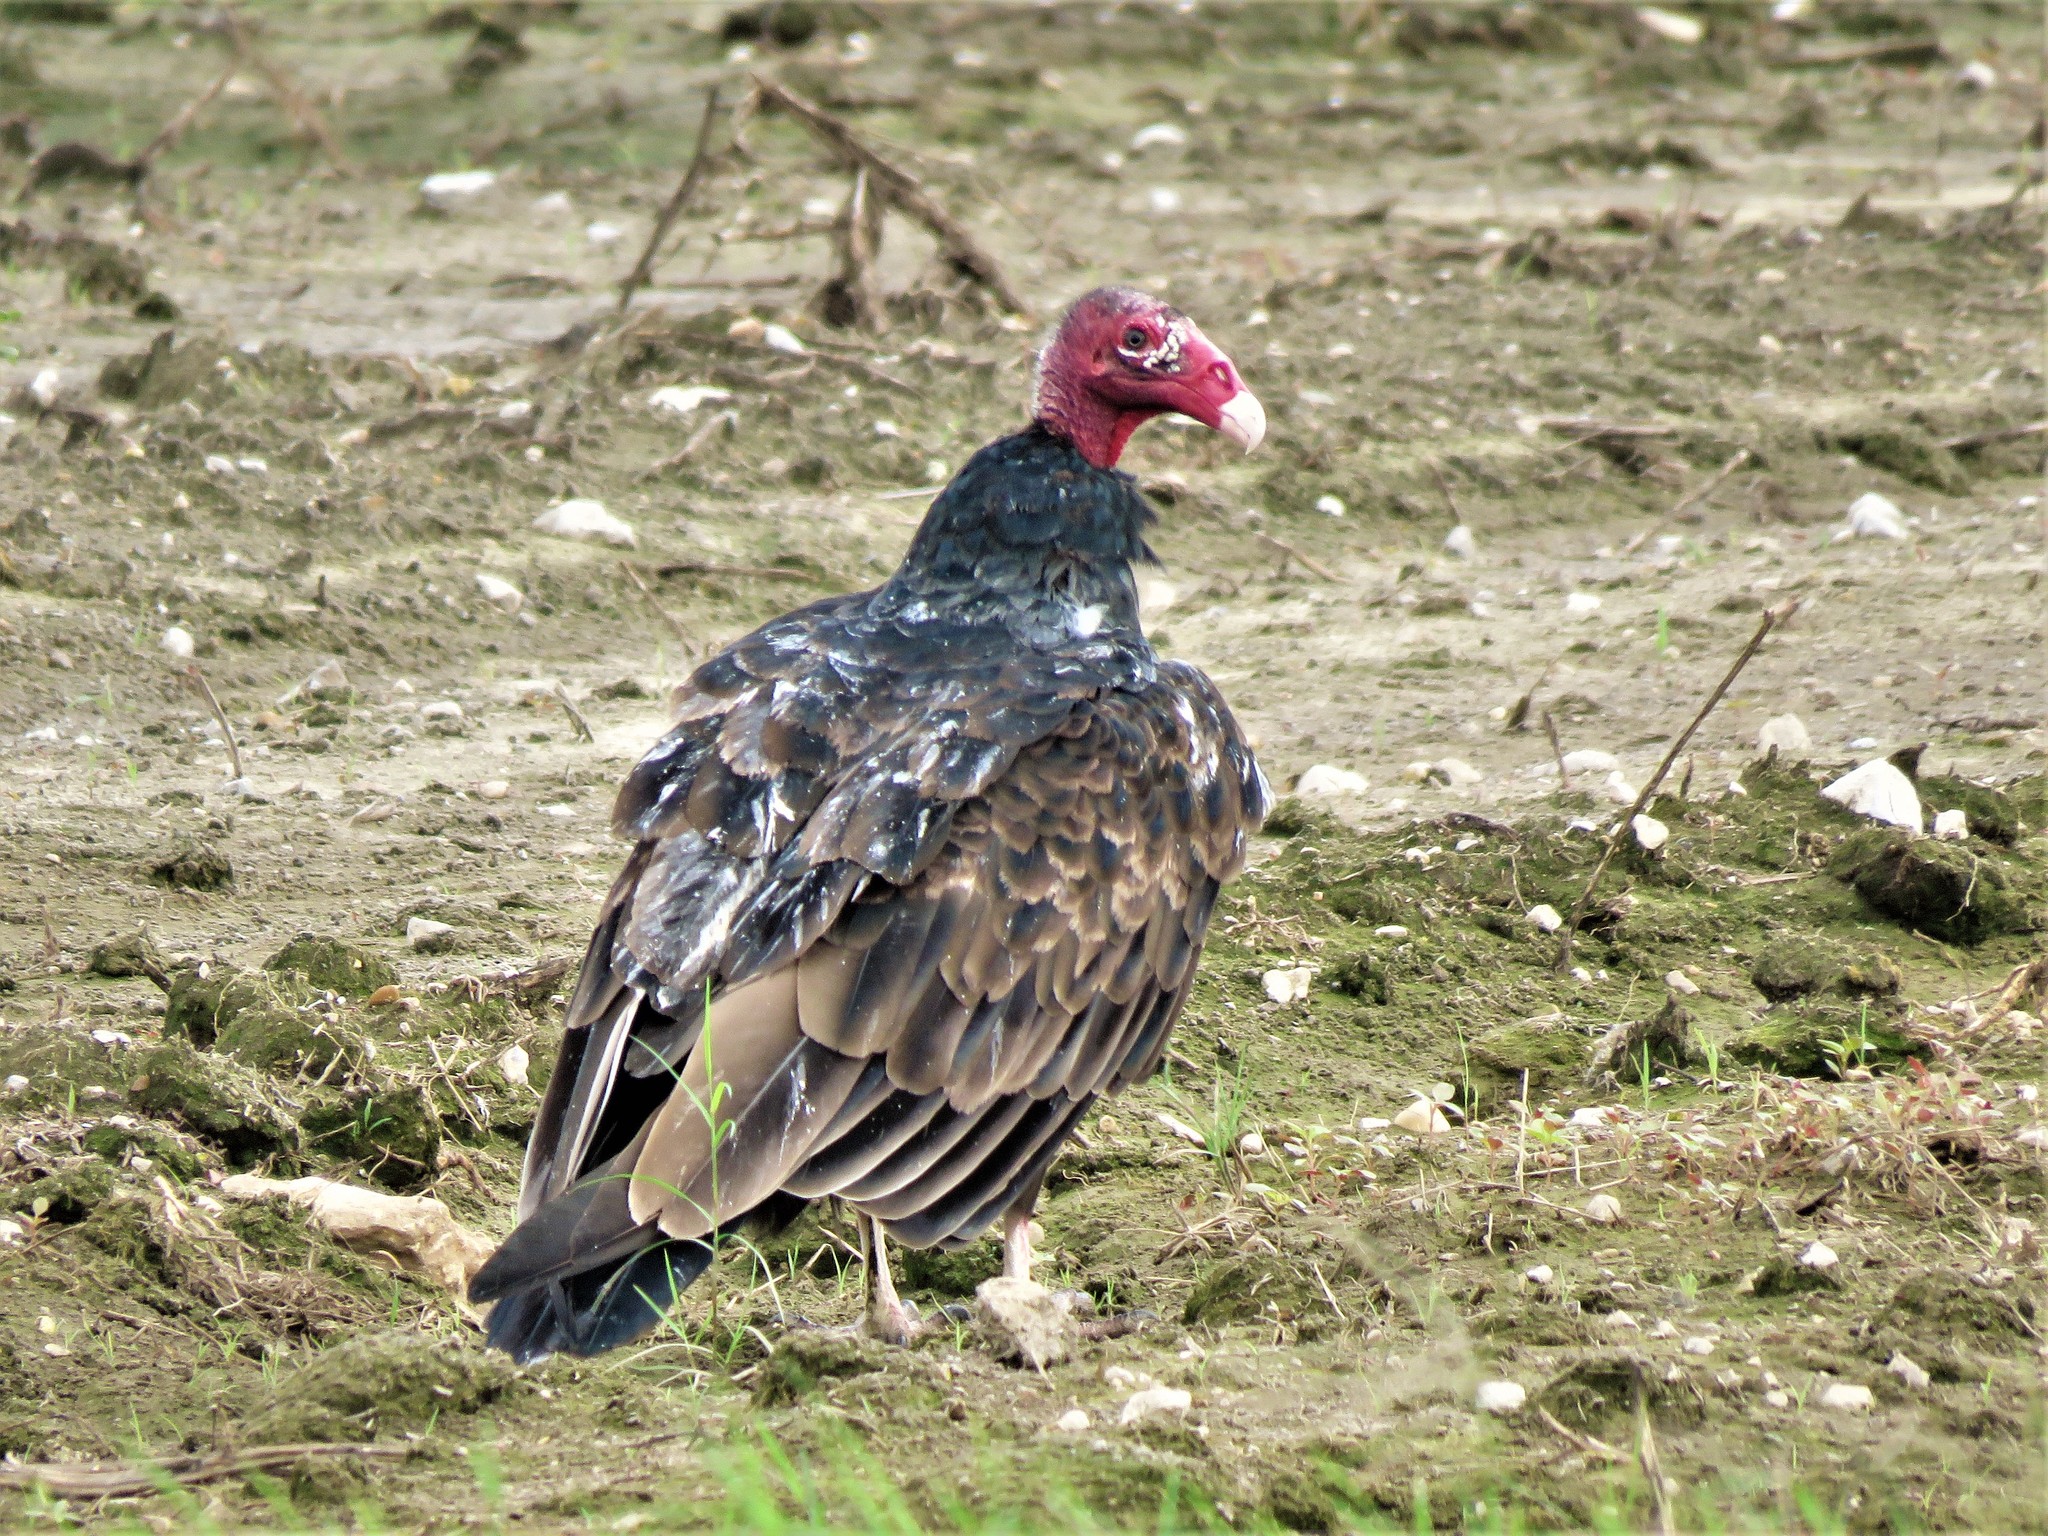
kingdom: Animalia
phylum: Chordata
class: Aves
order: Accipitriformes
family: Cathartidae
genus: Cathartes
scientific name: Cathartes aura
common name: Turkey vulture
